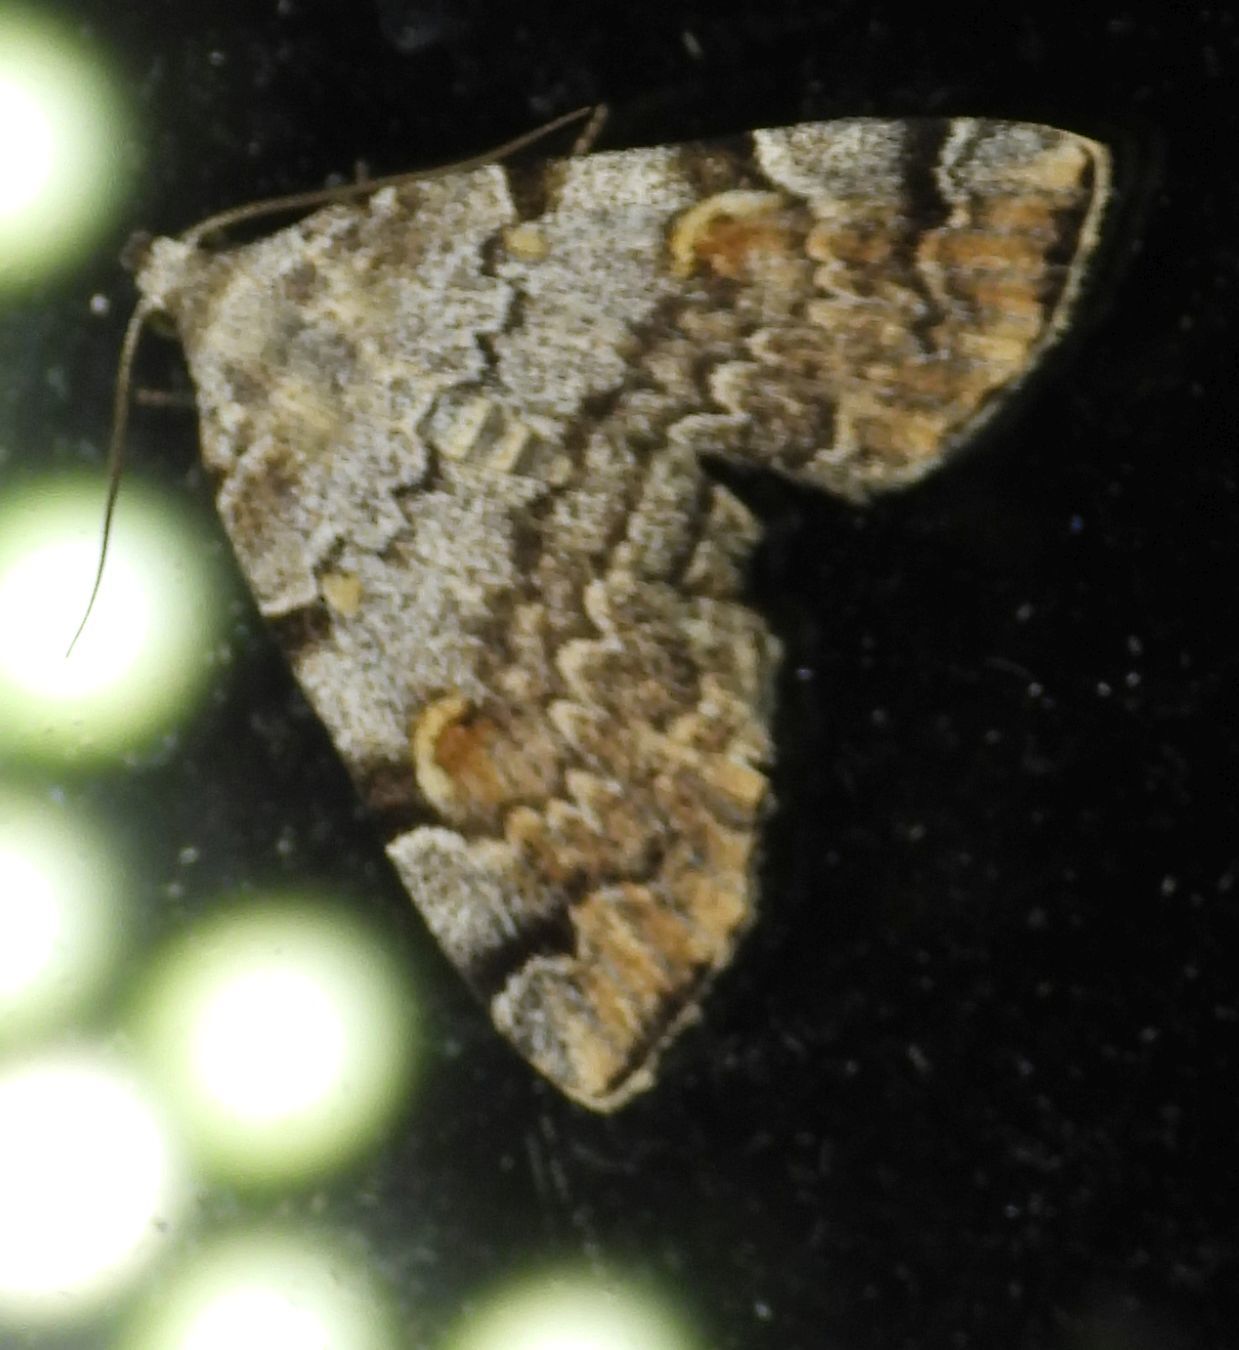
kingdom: Animalia
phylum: Arthropoda
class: Insecta
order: Lepidoptera
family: Erebidae
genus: Idia
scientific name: Idia americalis
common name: American idia moth
